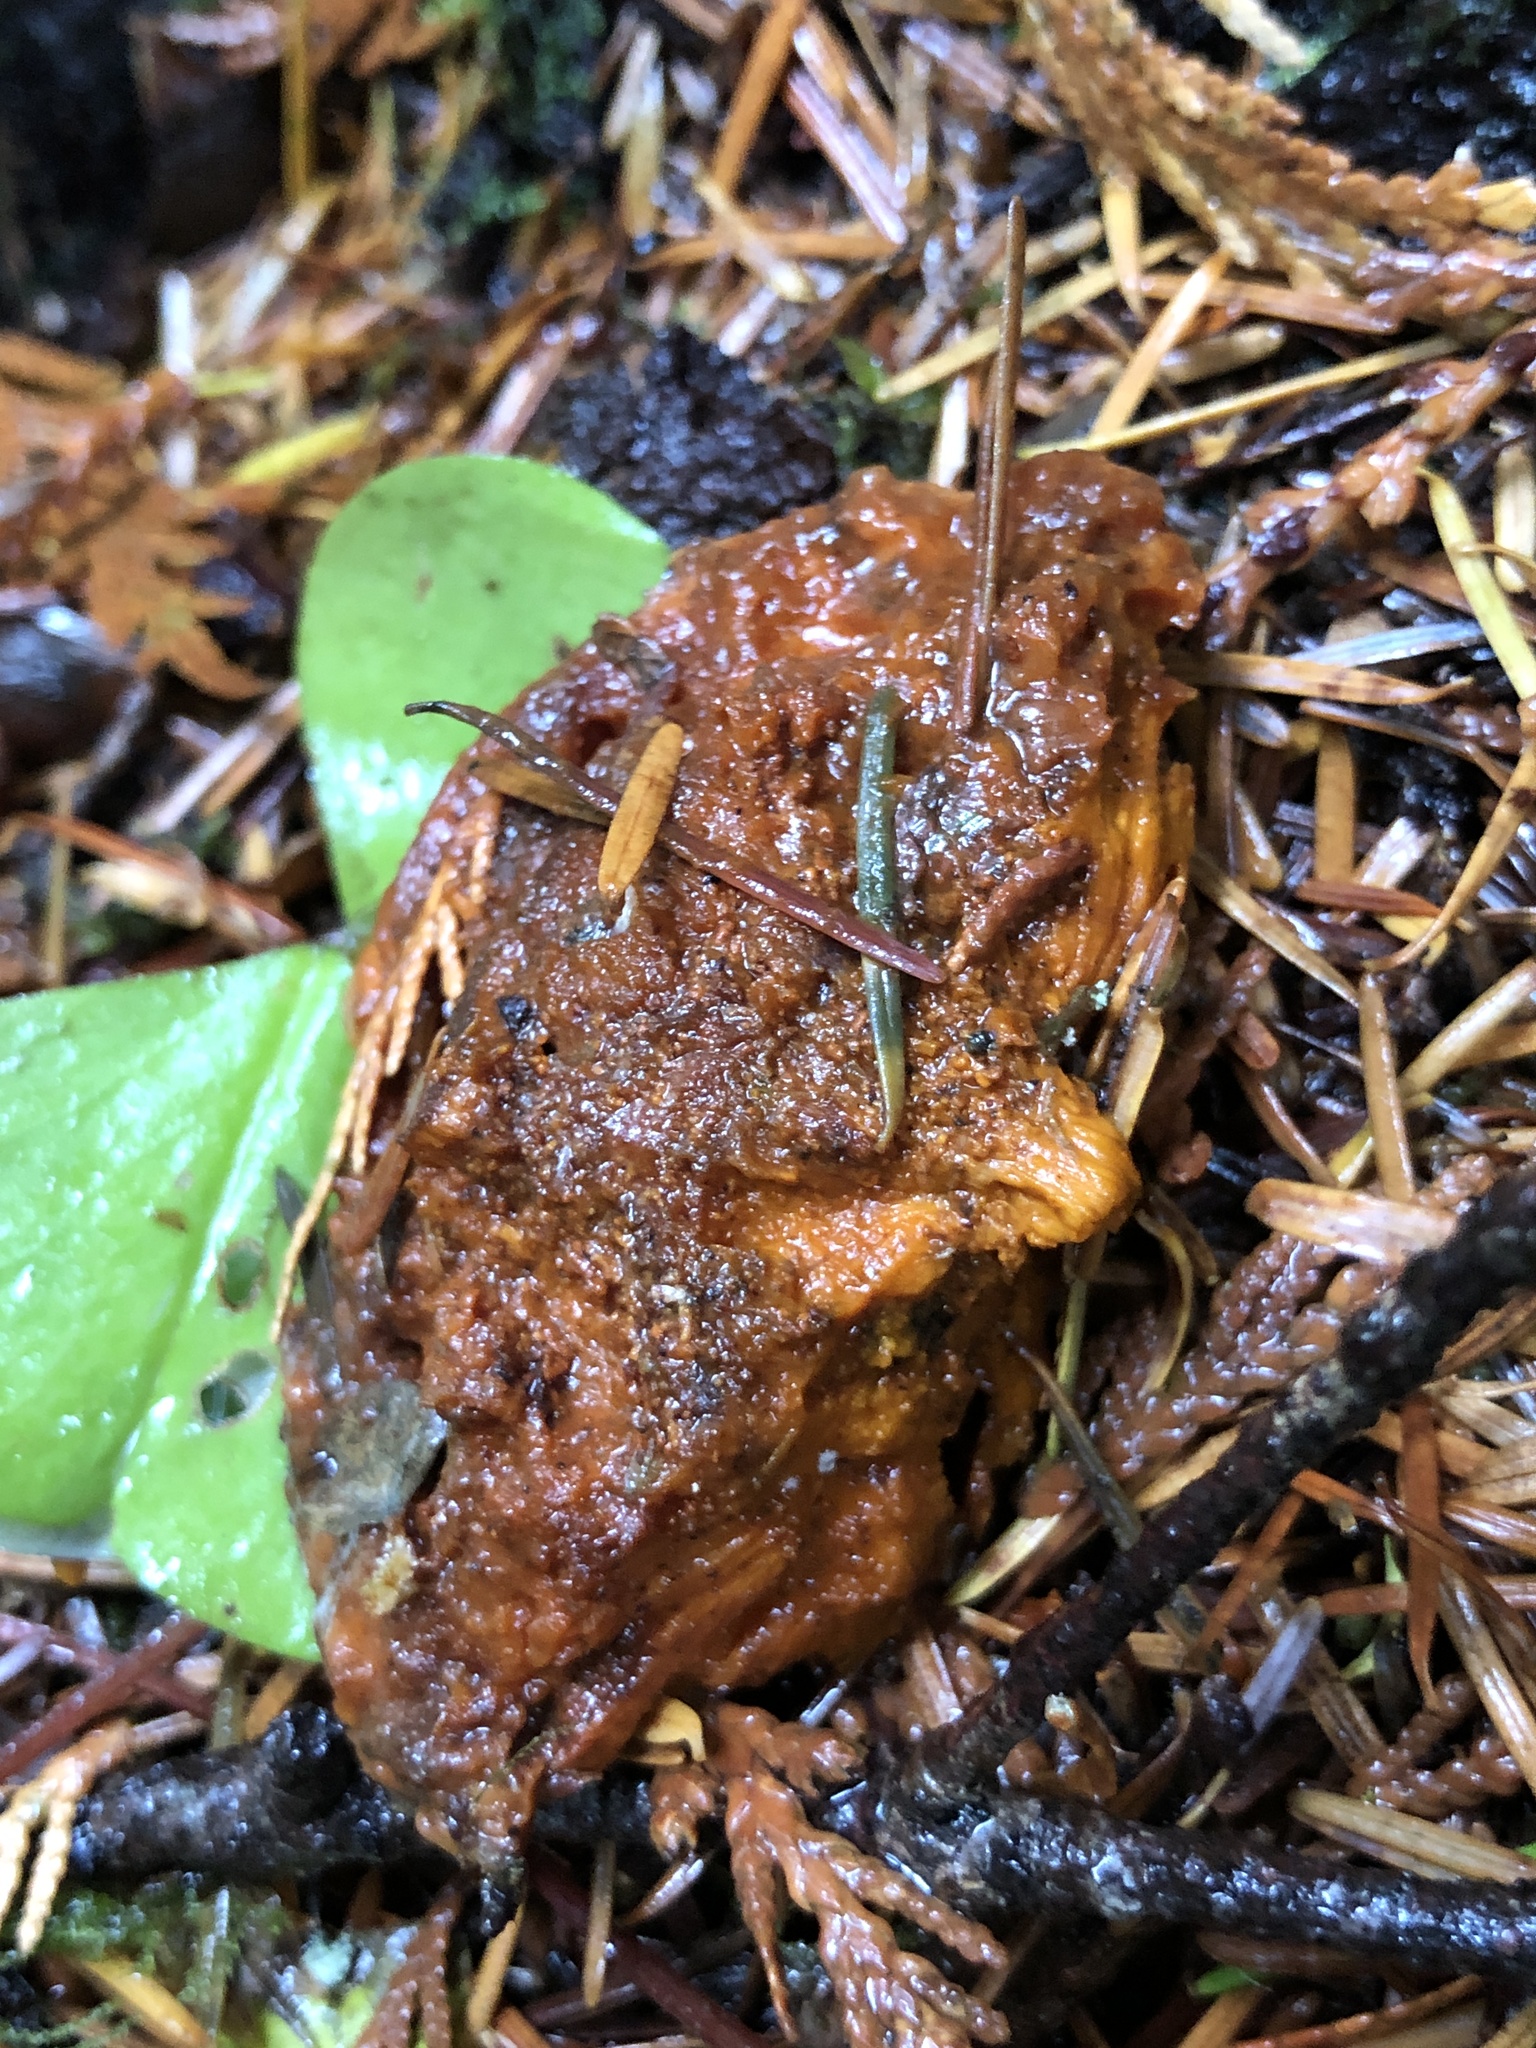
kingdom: Fungi
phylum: Ascomycota
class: Sordariomycetes
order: Hypocreales
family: Hypocreaceae
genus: Hypomyces
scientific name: Hypomyces lactifluorum
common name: Lobster mushroom
